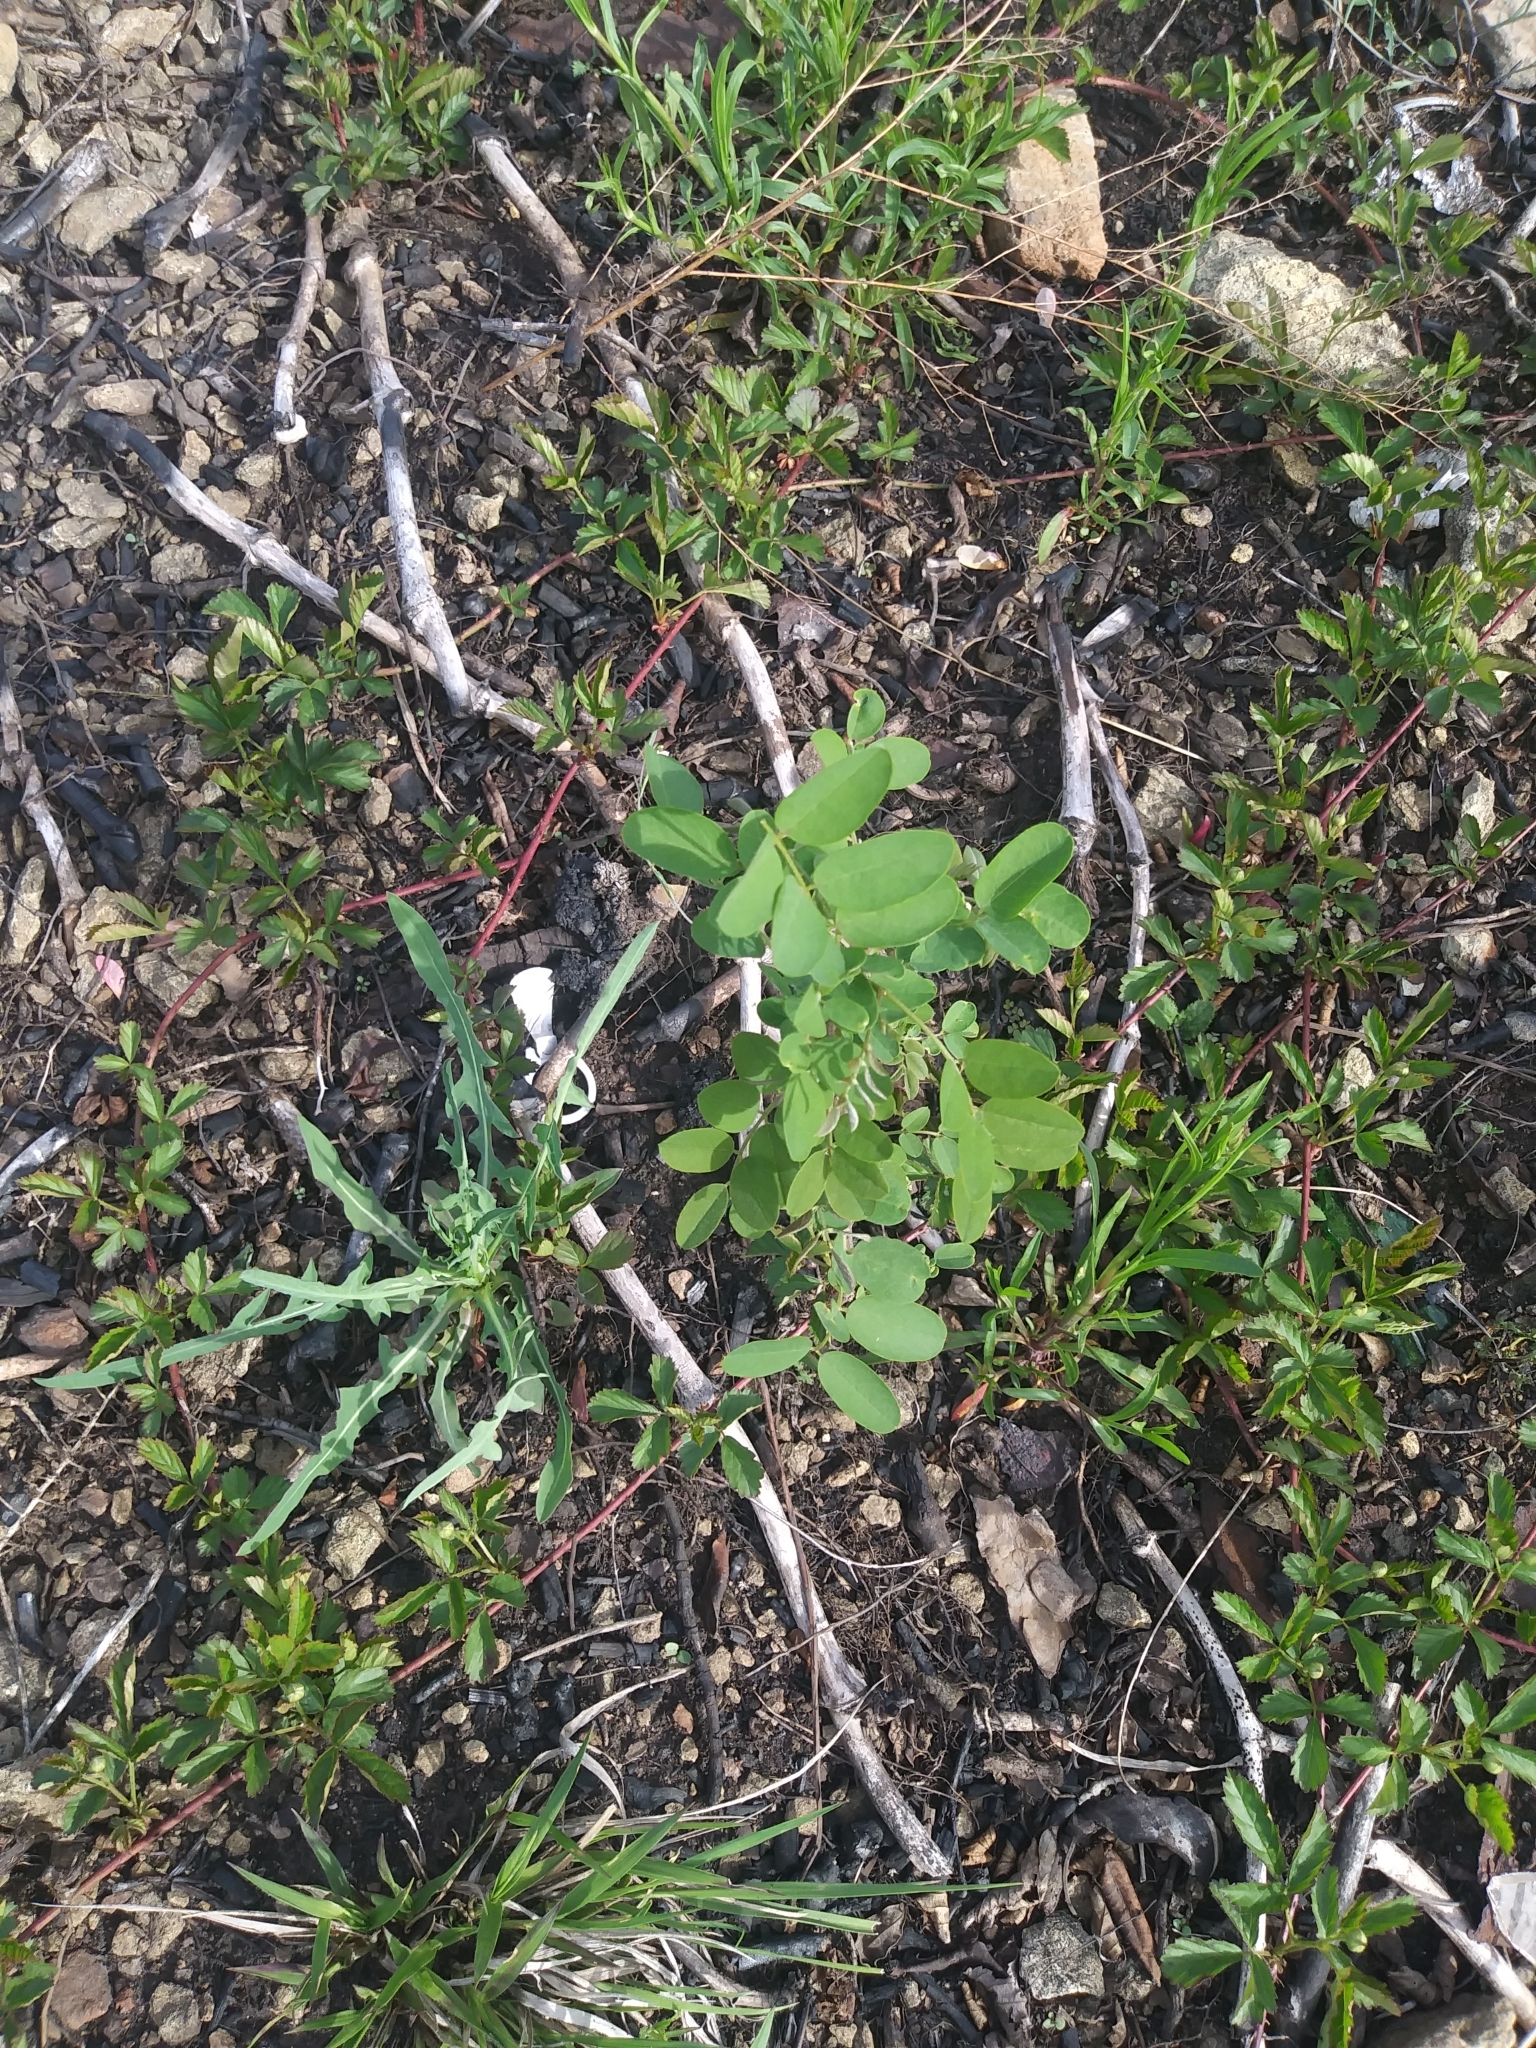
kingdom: Plantae
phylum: Tracheophyta
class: Magnoliopsida
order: Fabales
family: Fabaceae
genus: Robinia
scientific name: Robinia pseudoacacia
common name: Black locust
